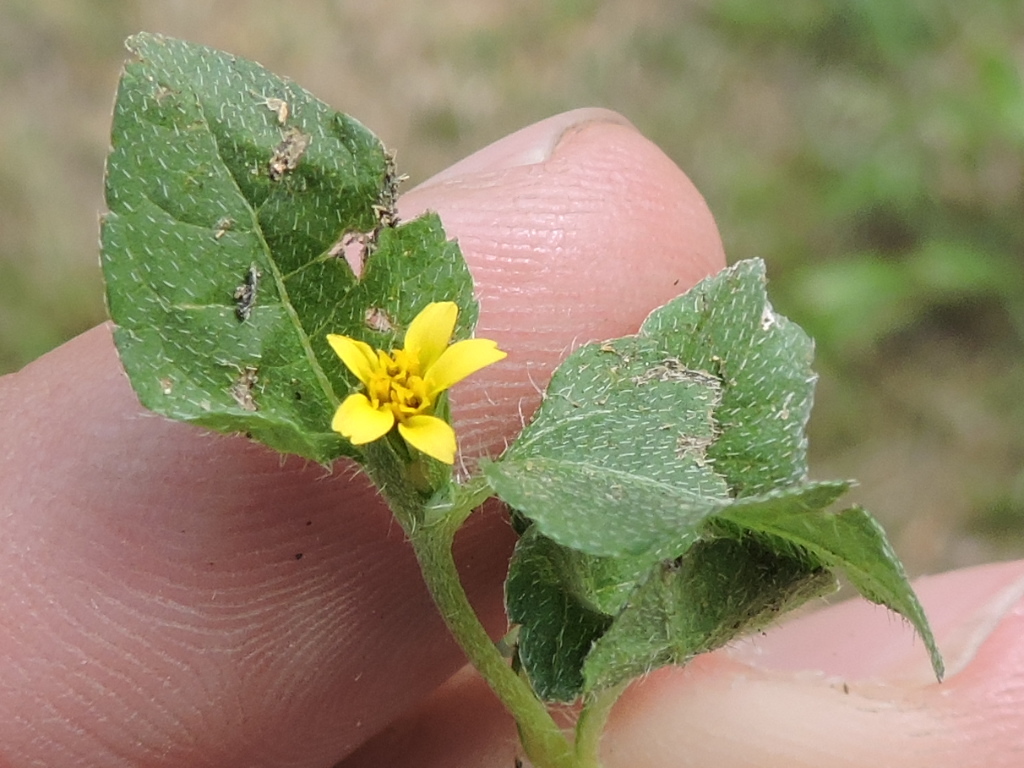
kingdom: Plantae
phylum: Tracheophyta
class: Magnoliopsida
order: Asterales
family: Asteraceae
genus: Calyptocarpus
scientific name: Calyptocarpus vialis
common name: Straggler daisy
